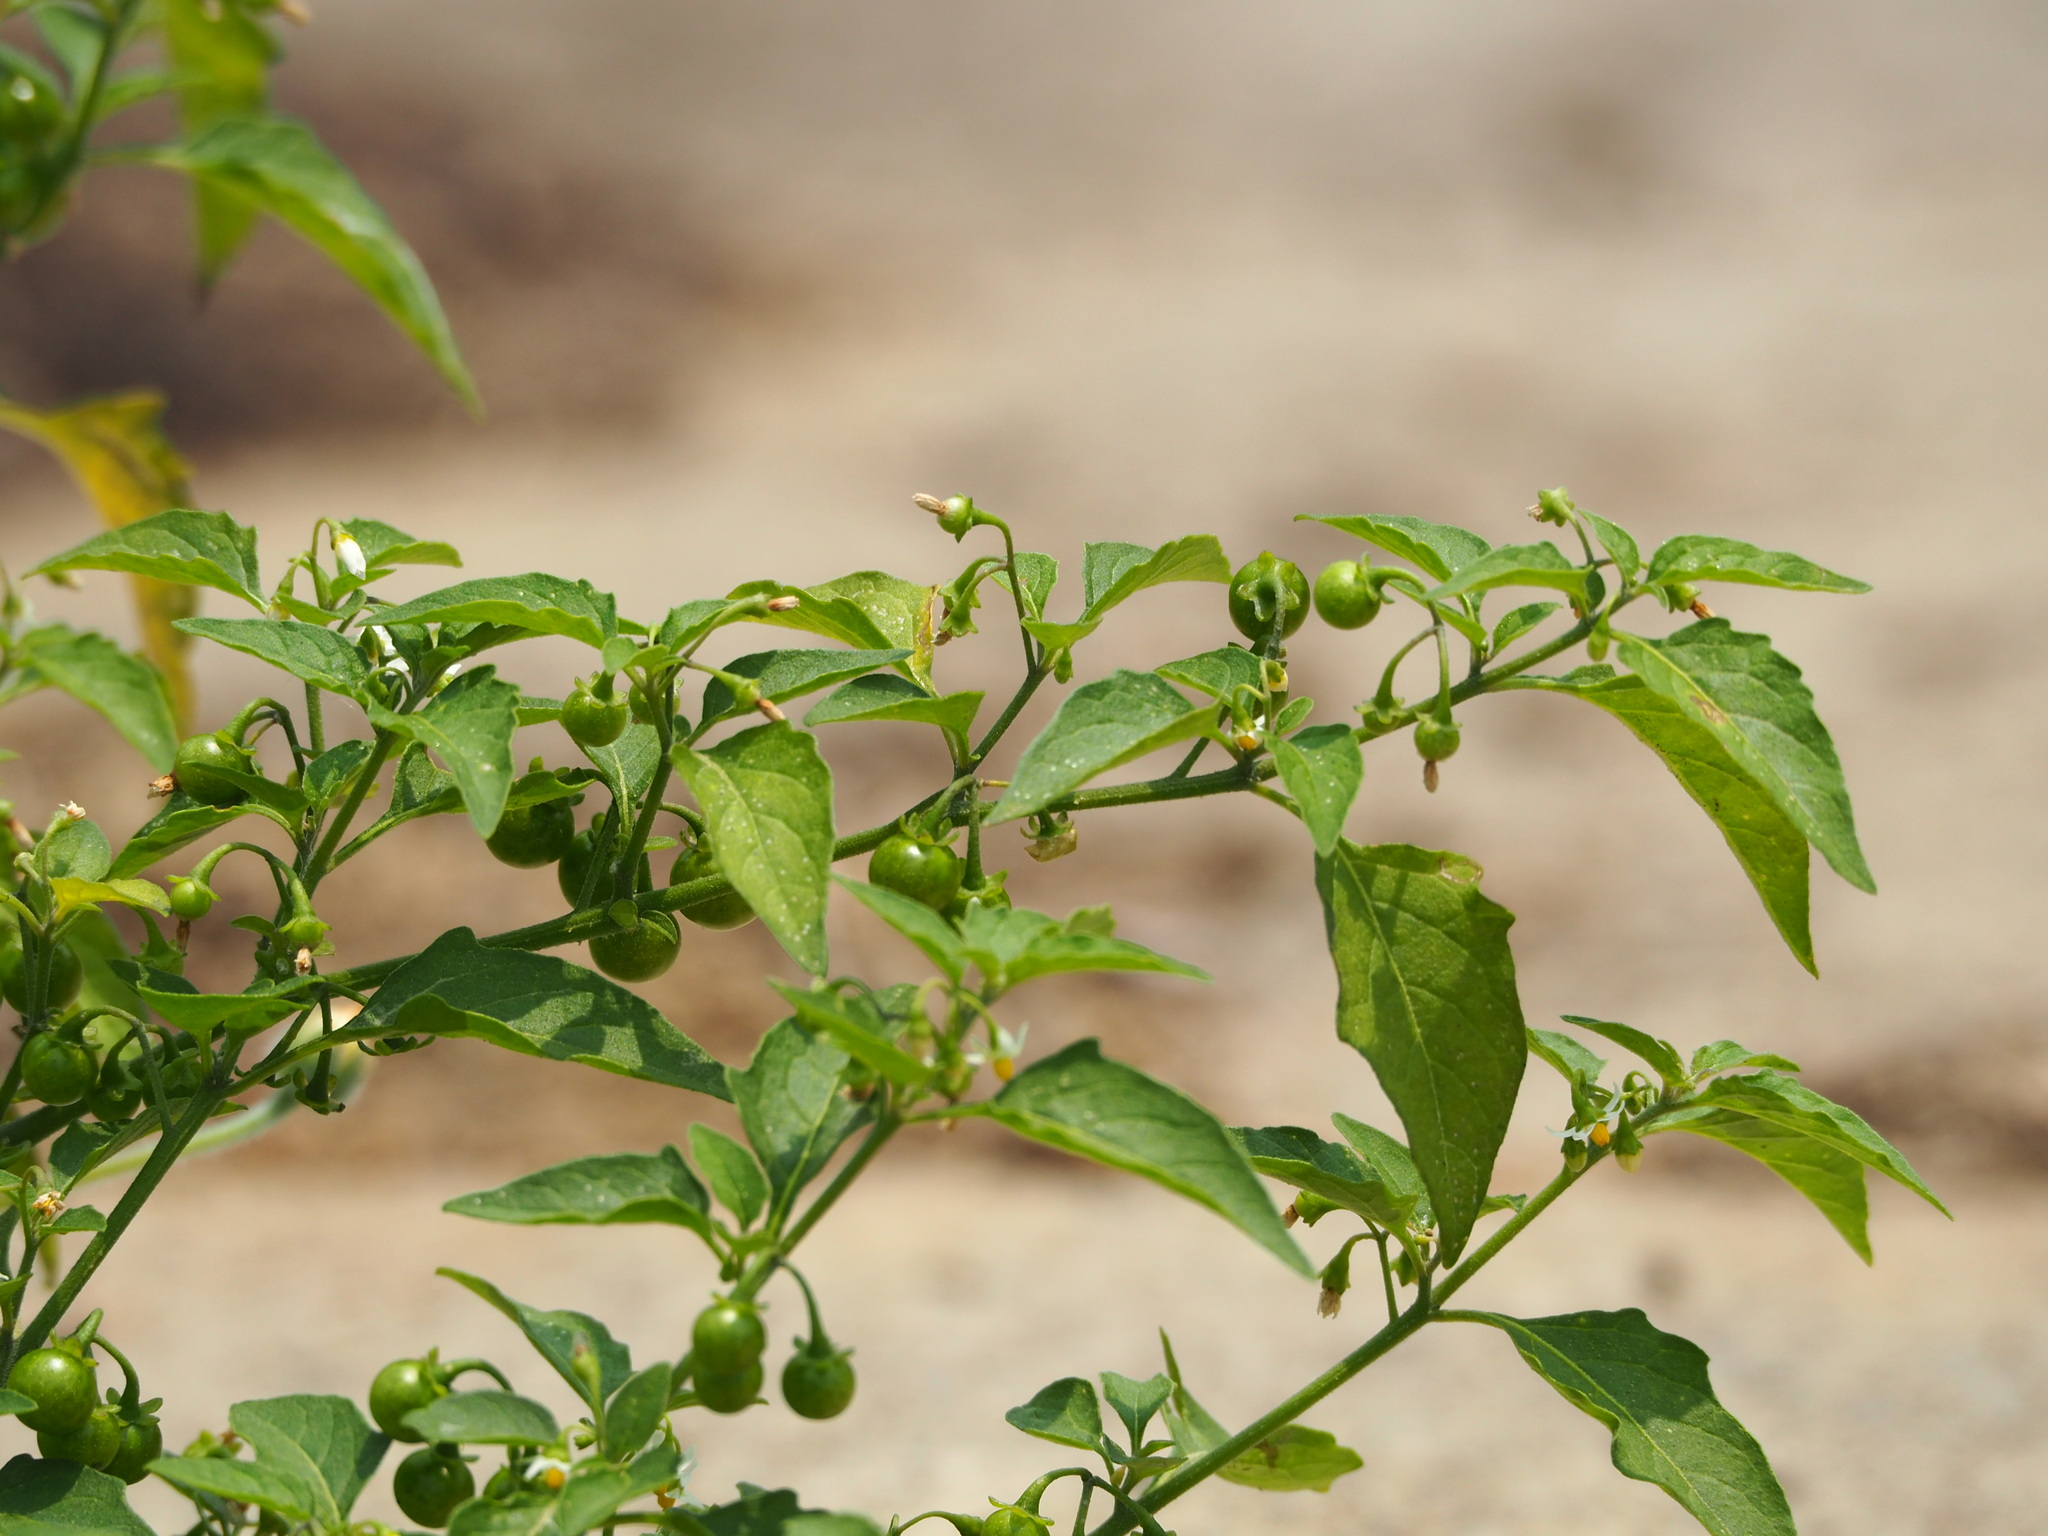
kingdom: Plantae
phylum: Tracheophyta
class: Magnoliopsida
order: Solanales
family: Solanaceae
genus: Solanum
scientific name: Solanum americanum
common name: American black nightshade
